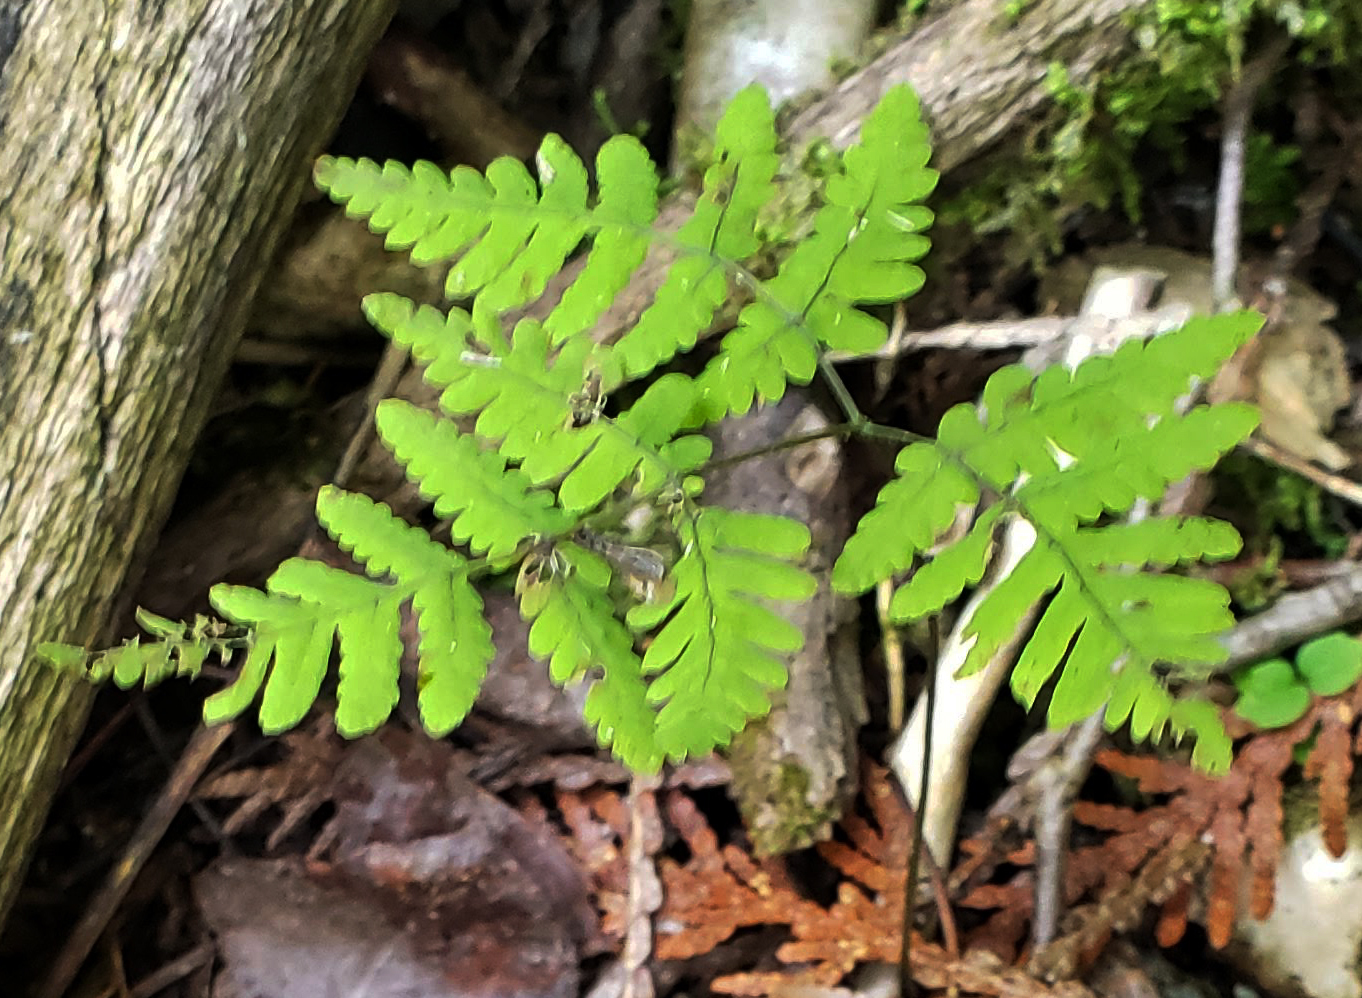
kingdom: Plantae
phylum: Tracheophyta
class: Polypodiopsida
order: Polypodiales
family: Cystopteridaceae
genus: Gymnocarpium
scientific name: Gymnocarpium dryopteris
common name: Oak fern
